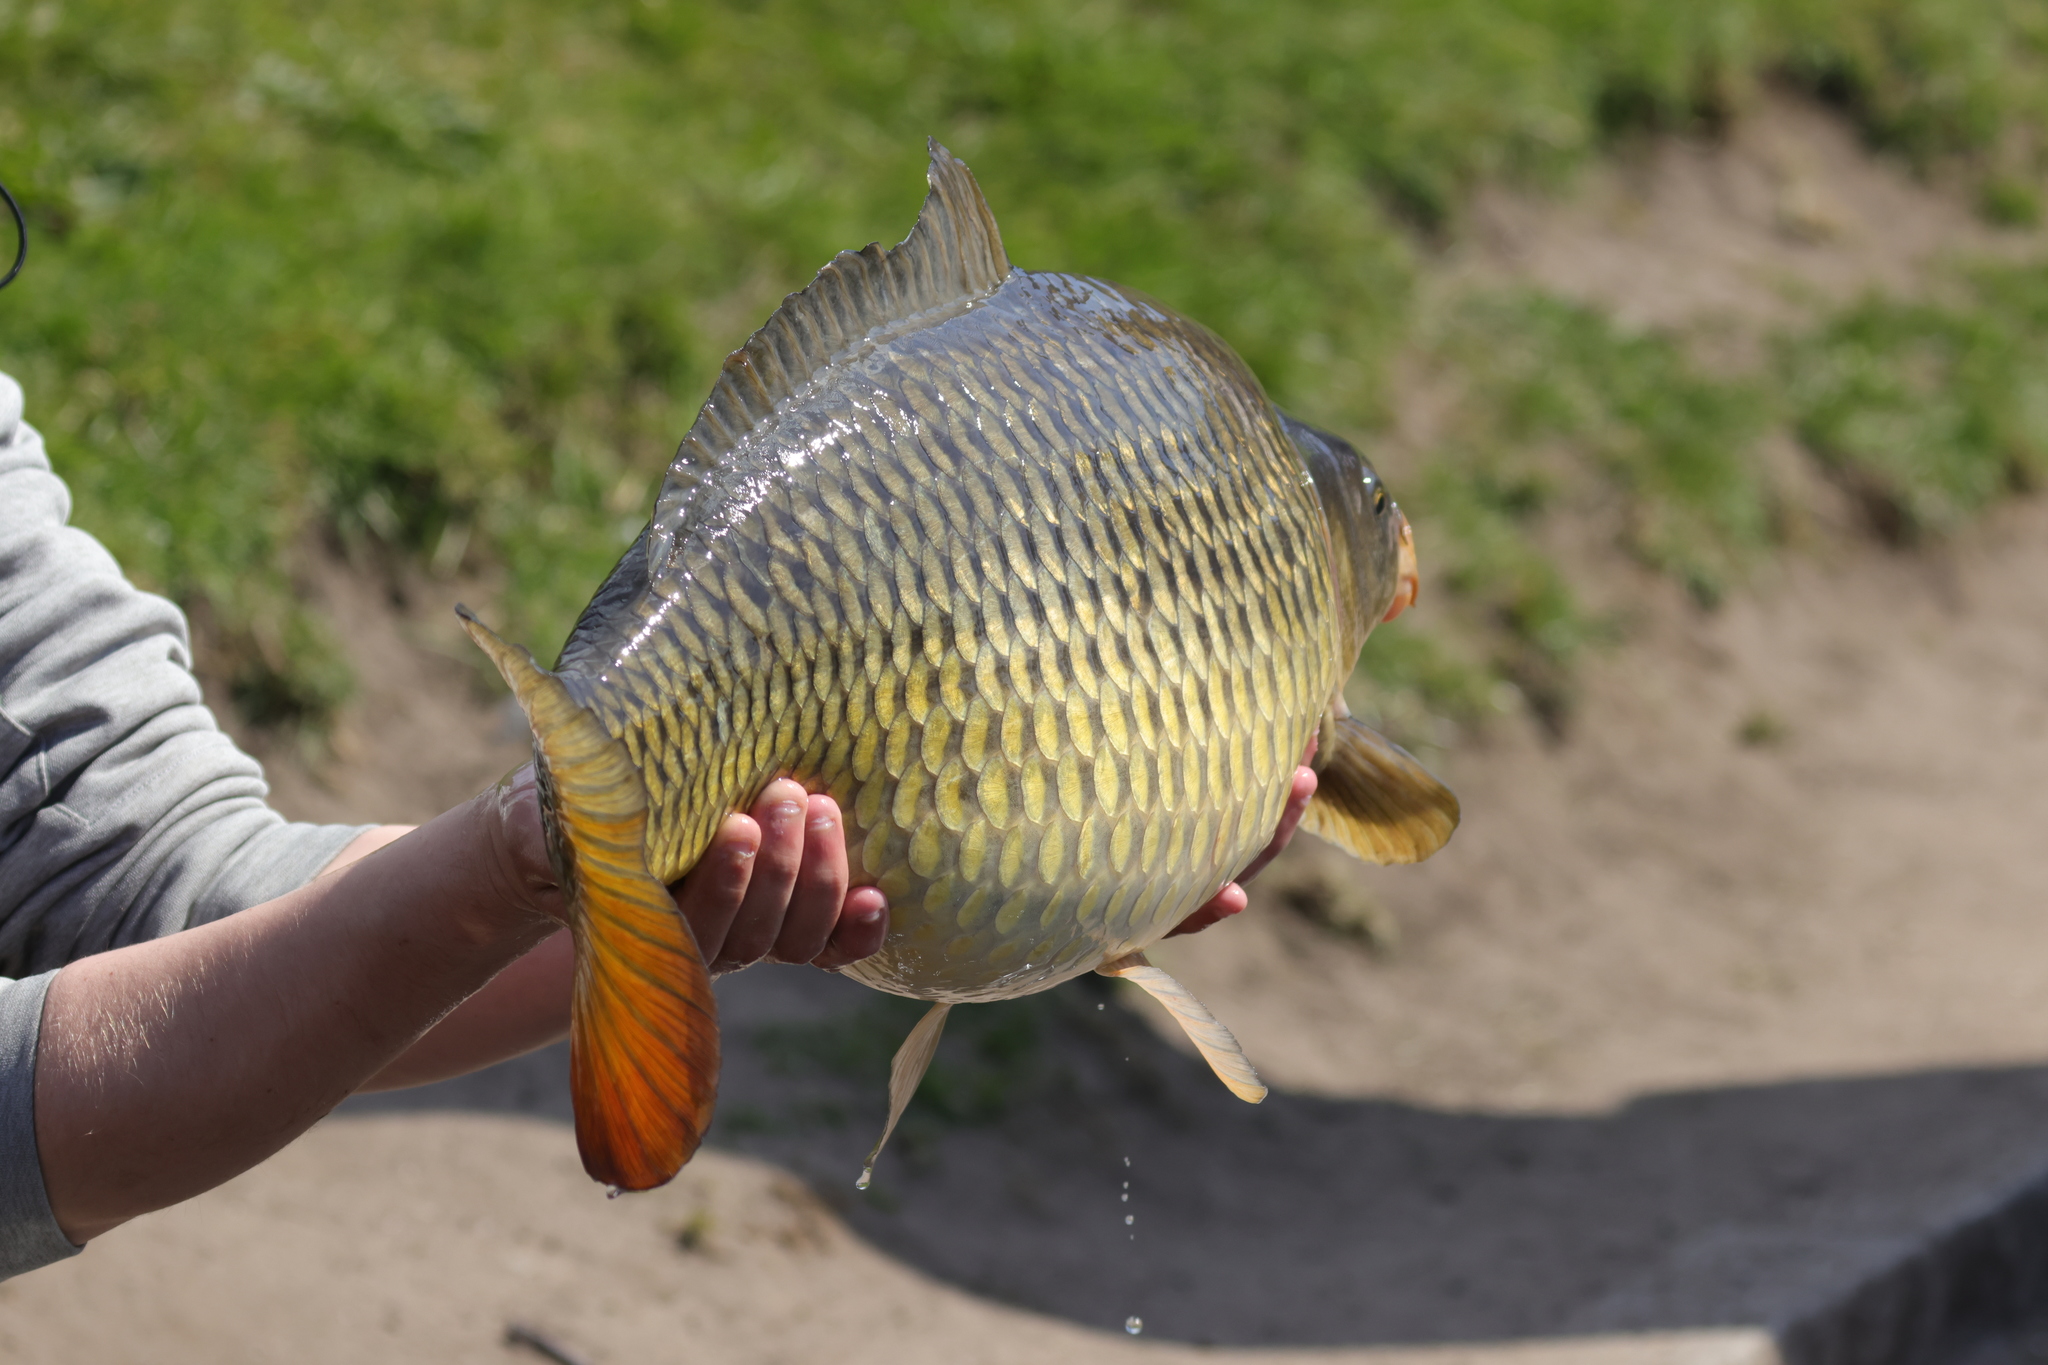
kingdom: Animalia
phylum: Chordata
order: Cypriniformes
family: Cyprinidae
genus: Cyprinus
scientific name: Cyprinus carpio
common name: Common carp
